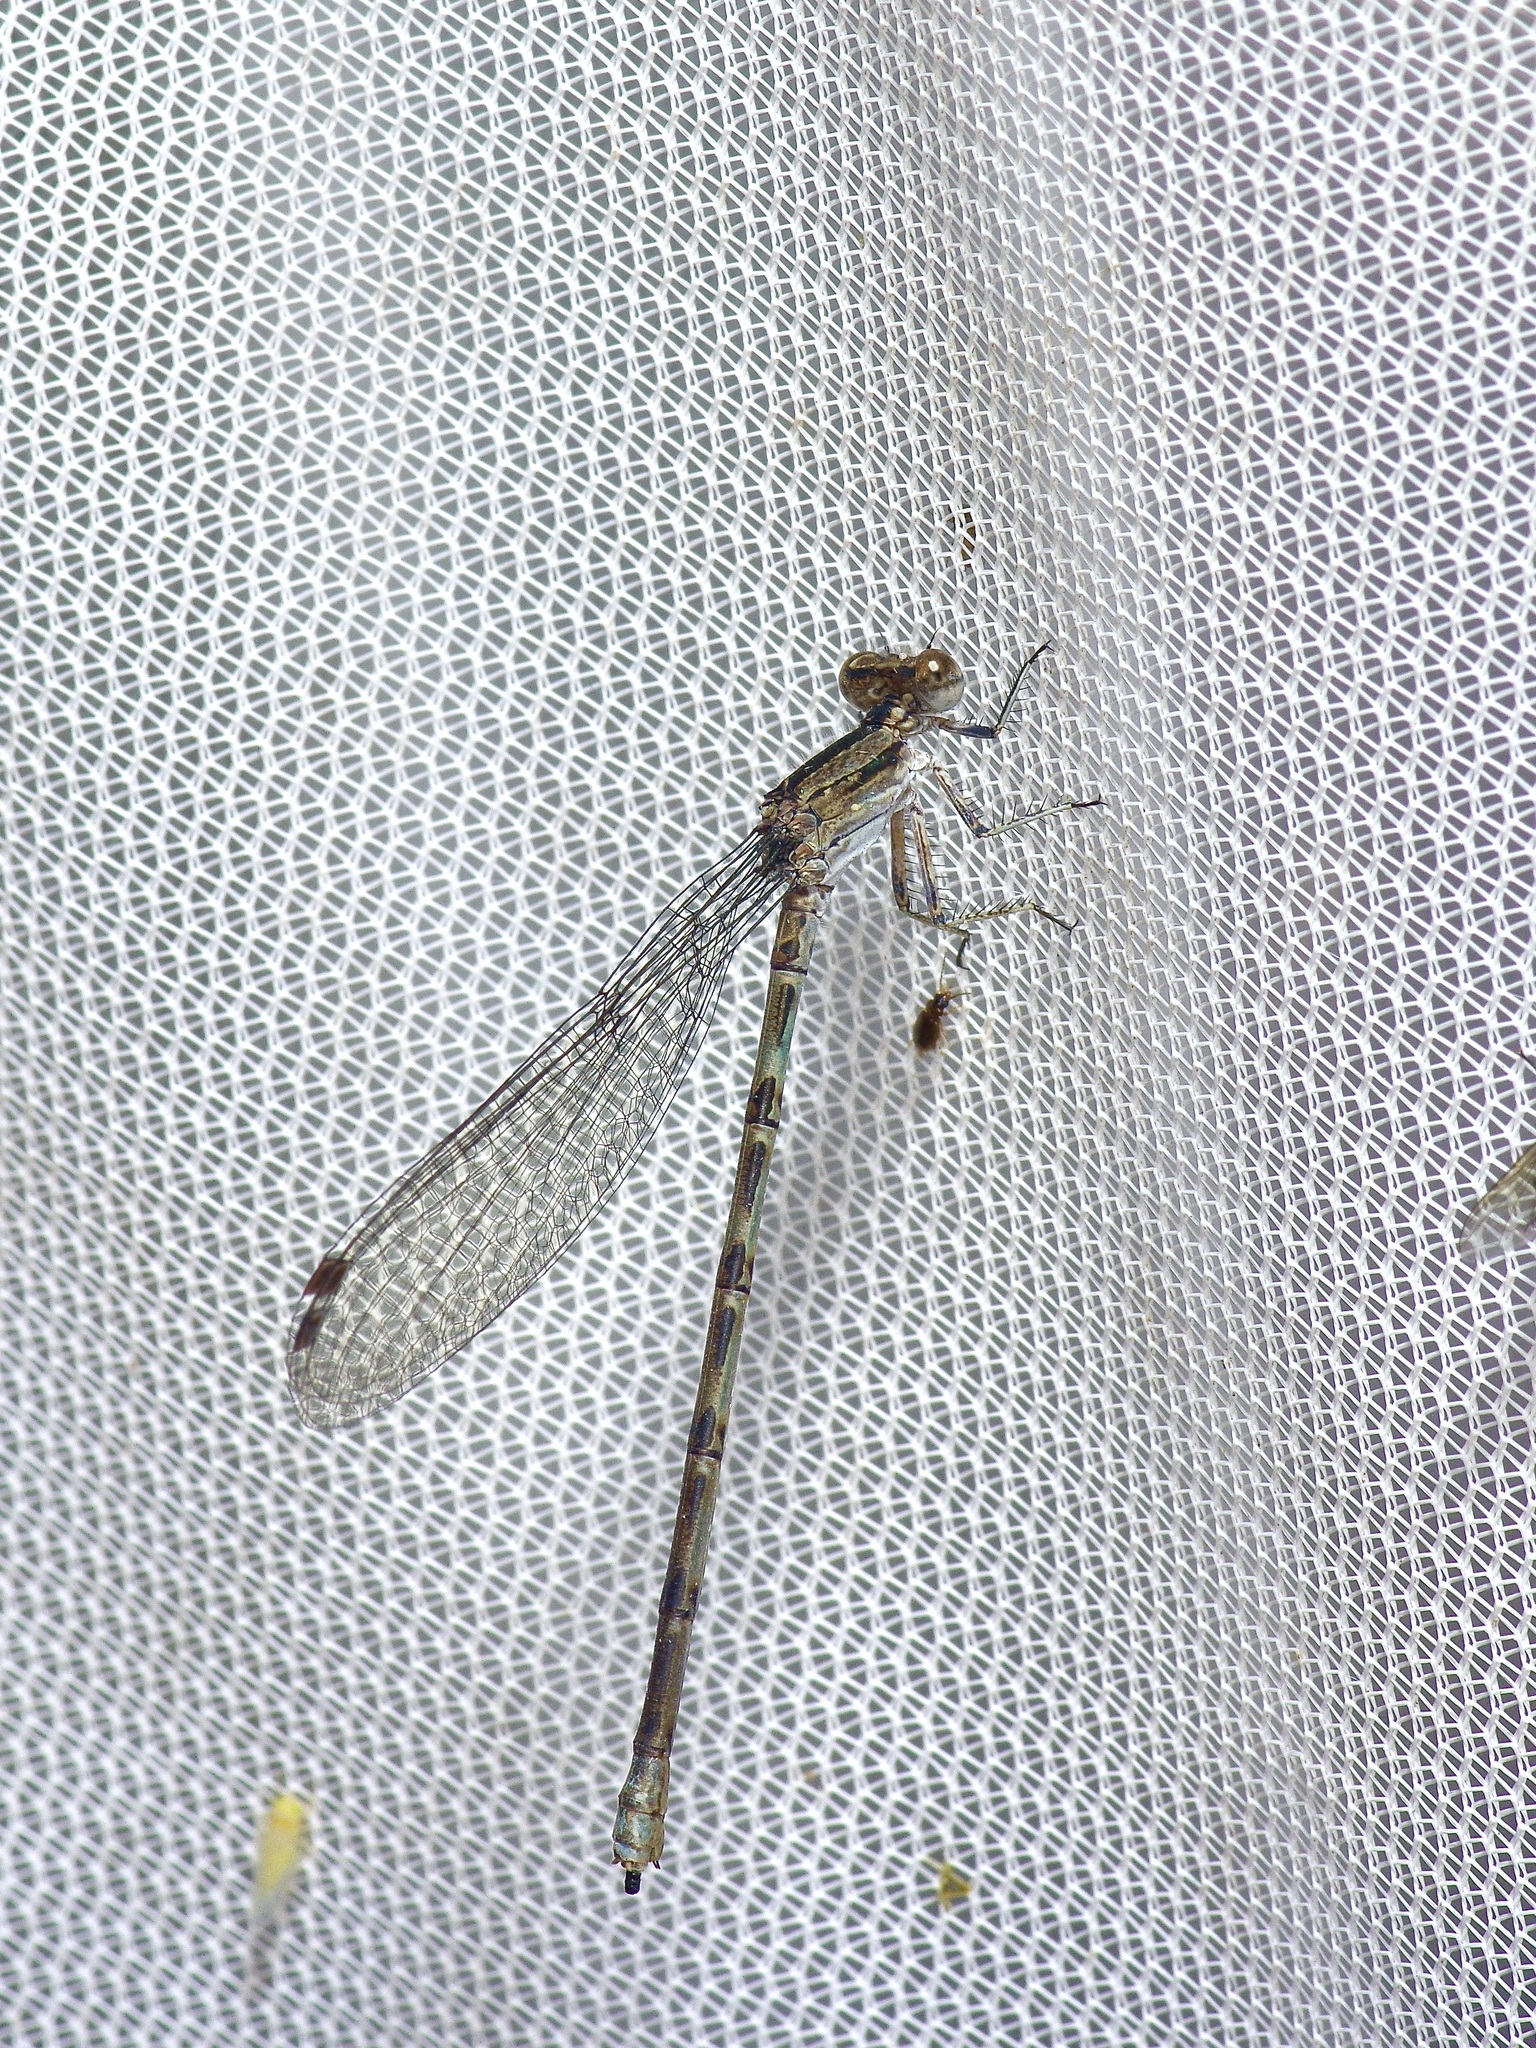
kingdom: Animalia
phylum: Arthropoda
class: Insecta
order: Odonata
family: Coenagrionidae
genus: Argia
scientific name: Argia immunda
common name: Kiowa dancer
